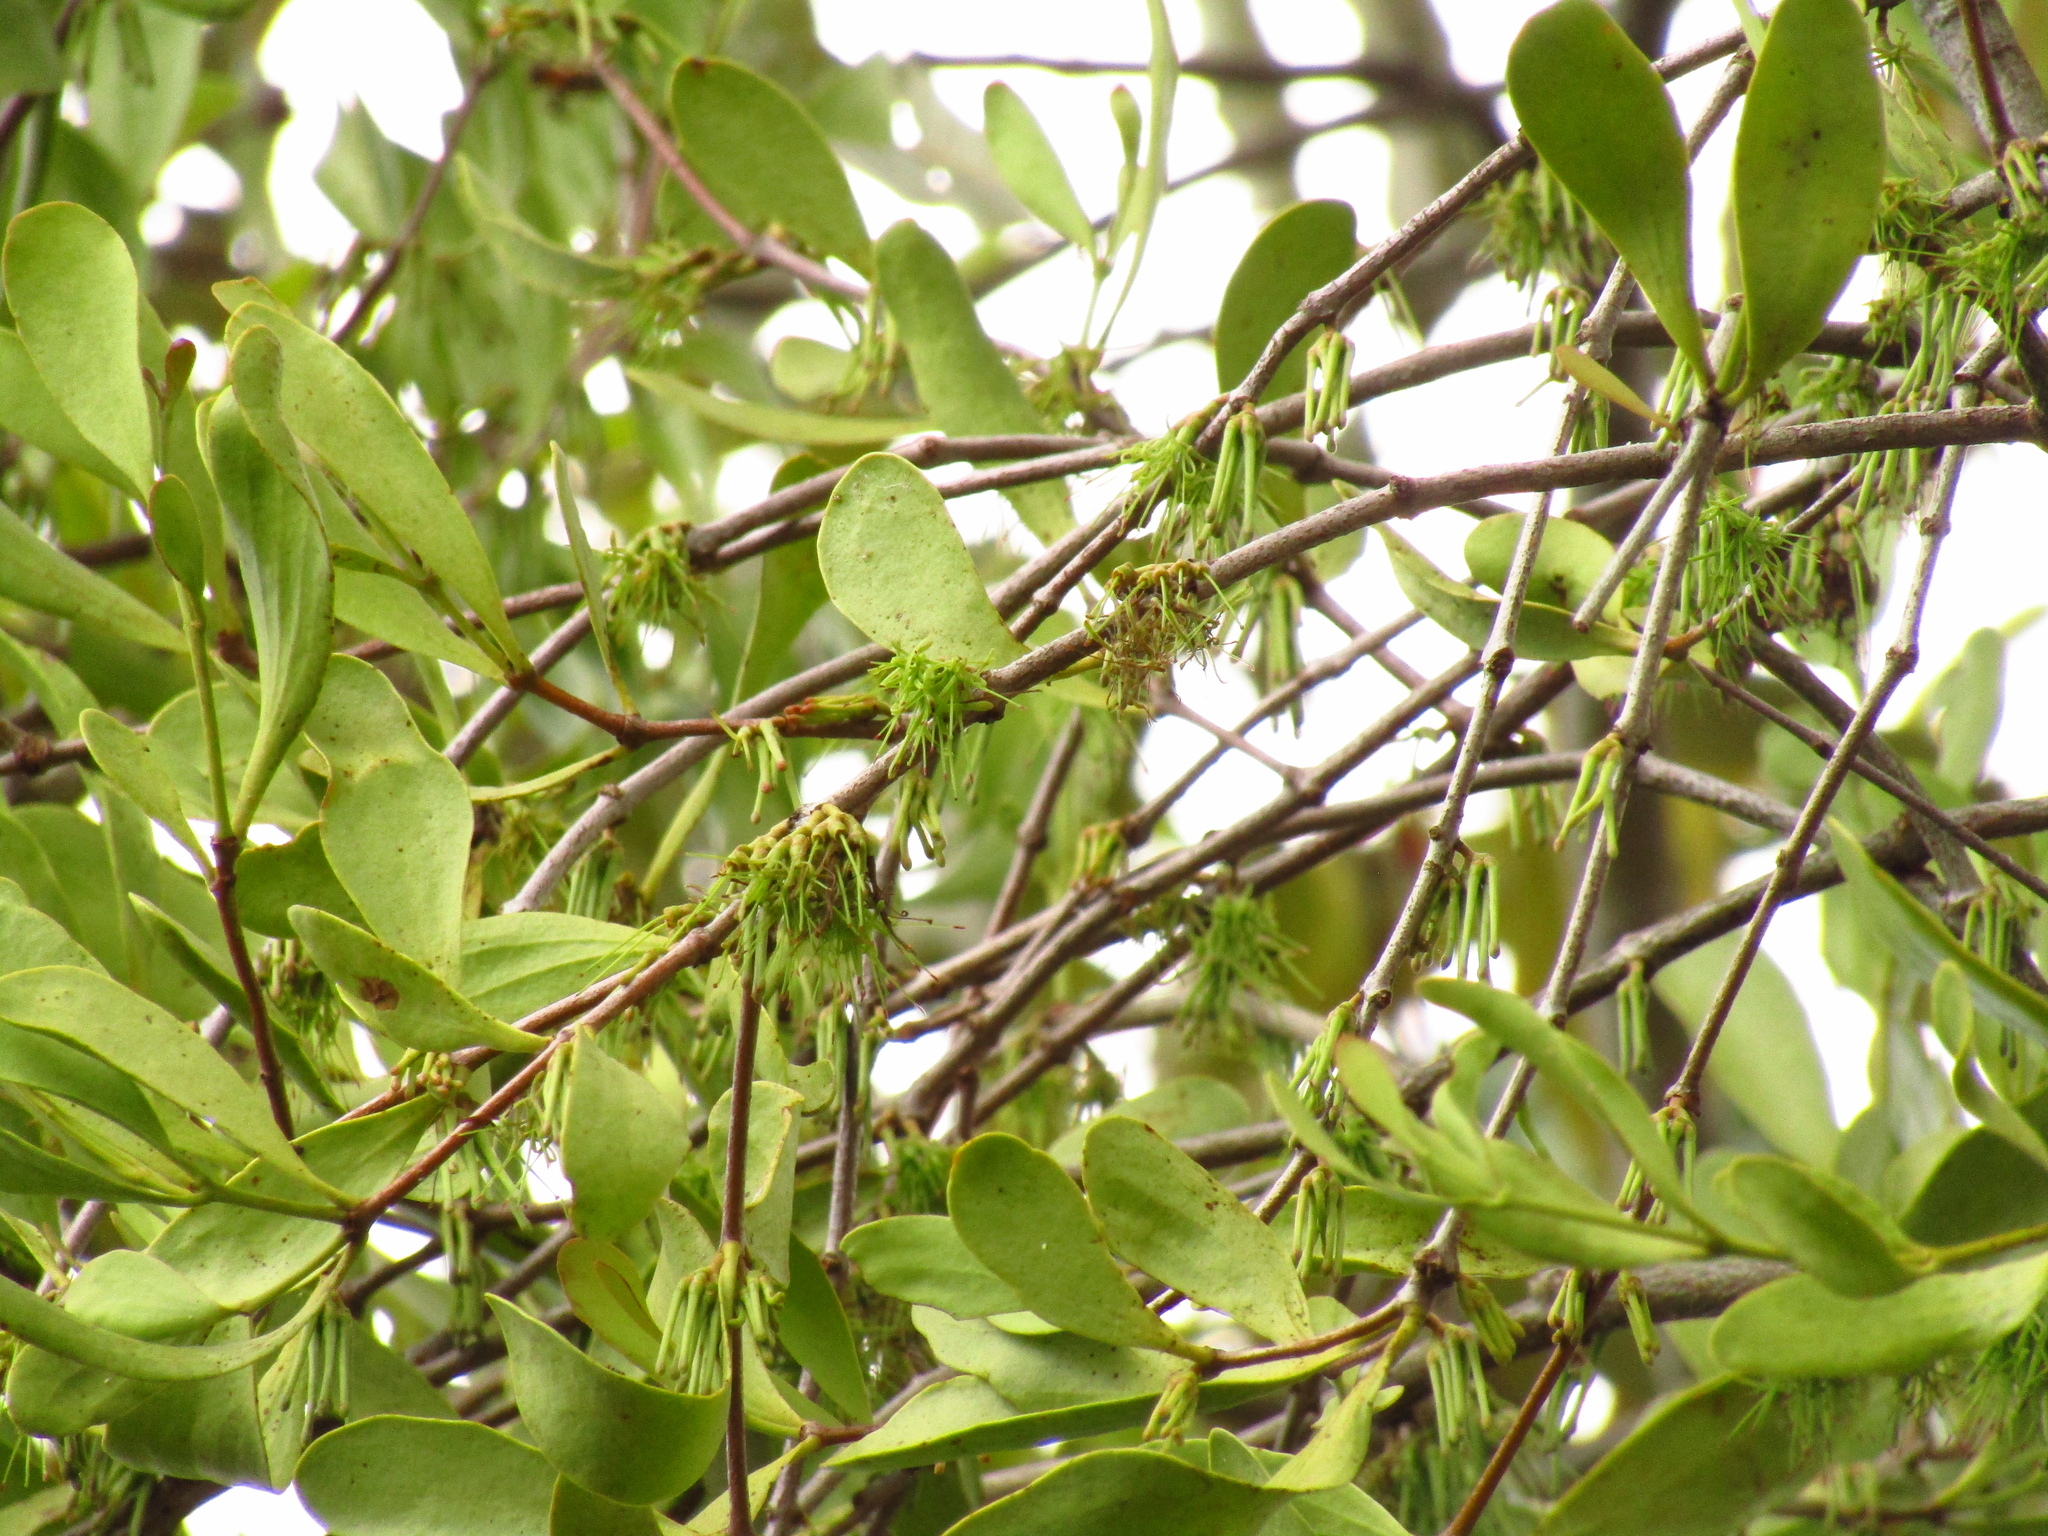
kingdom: Plantae
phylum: Tracheophyta
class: Magnoliopsida
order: Santalales
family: Loranthaceae
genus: Amyema
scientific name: Amyema conspicua
